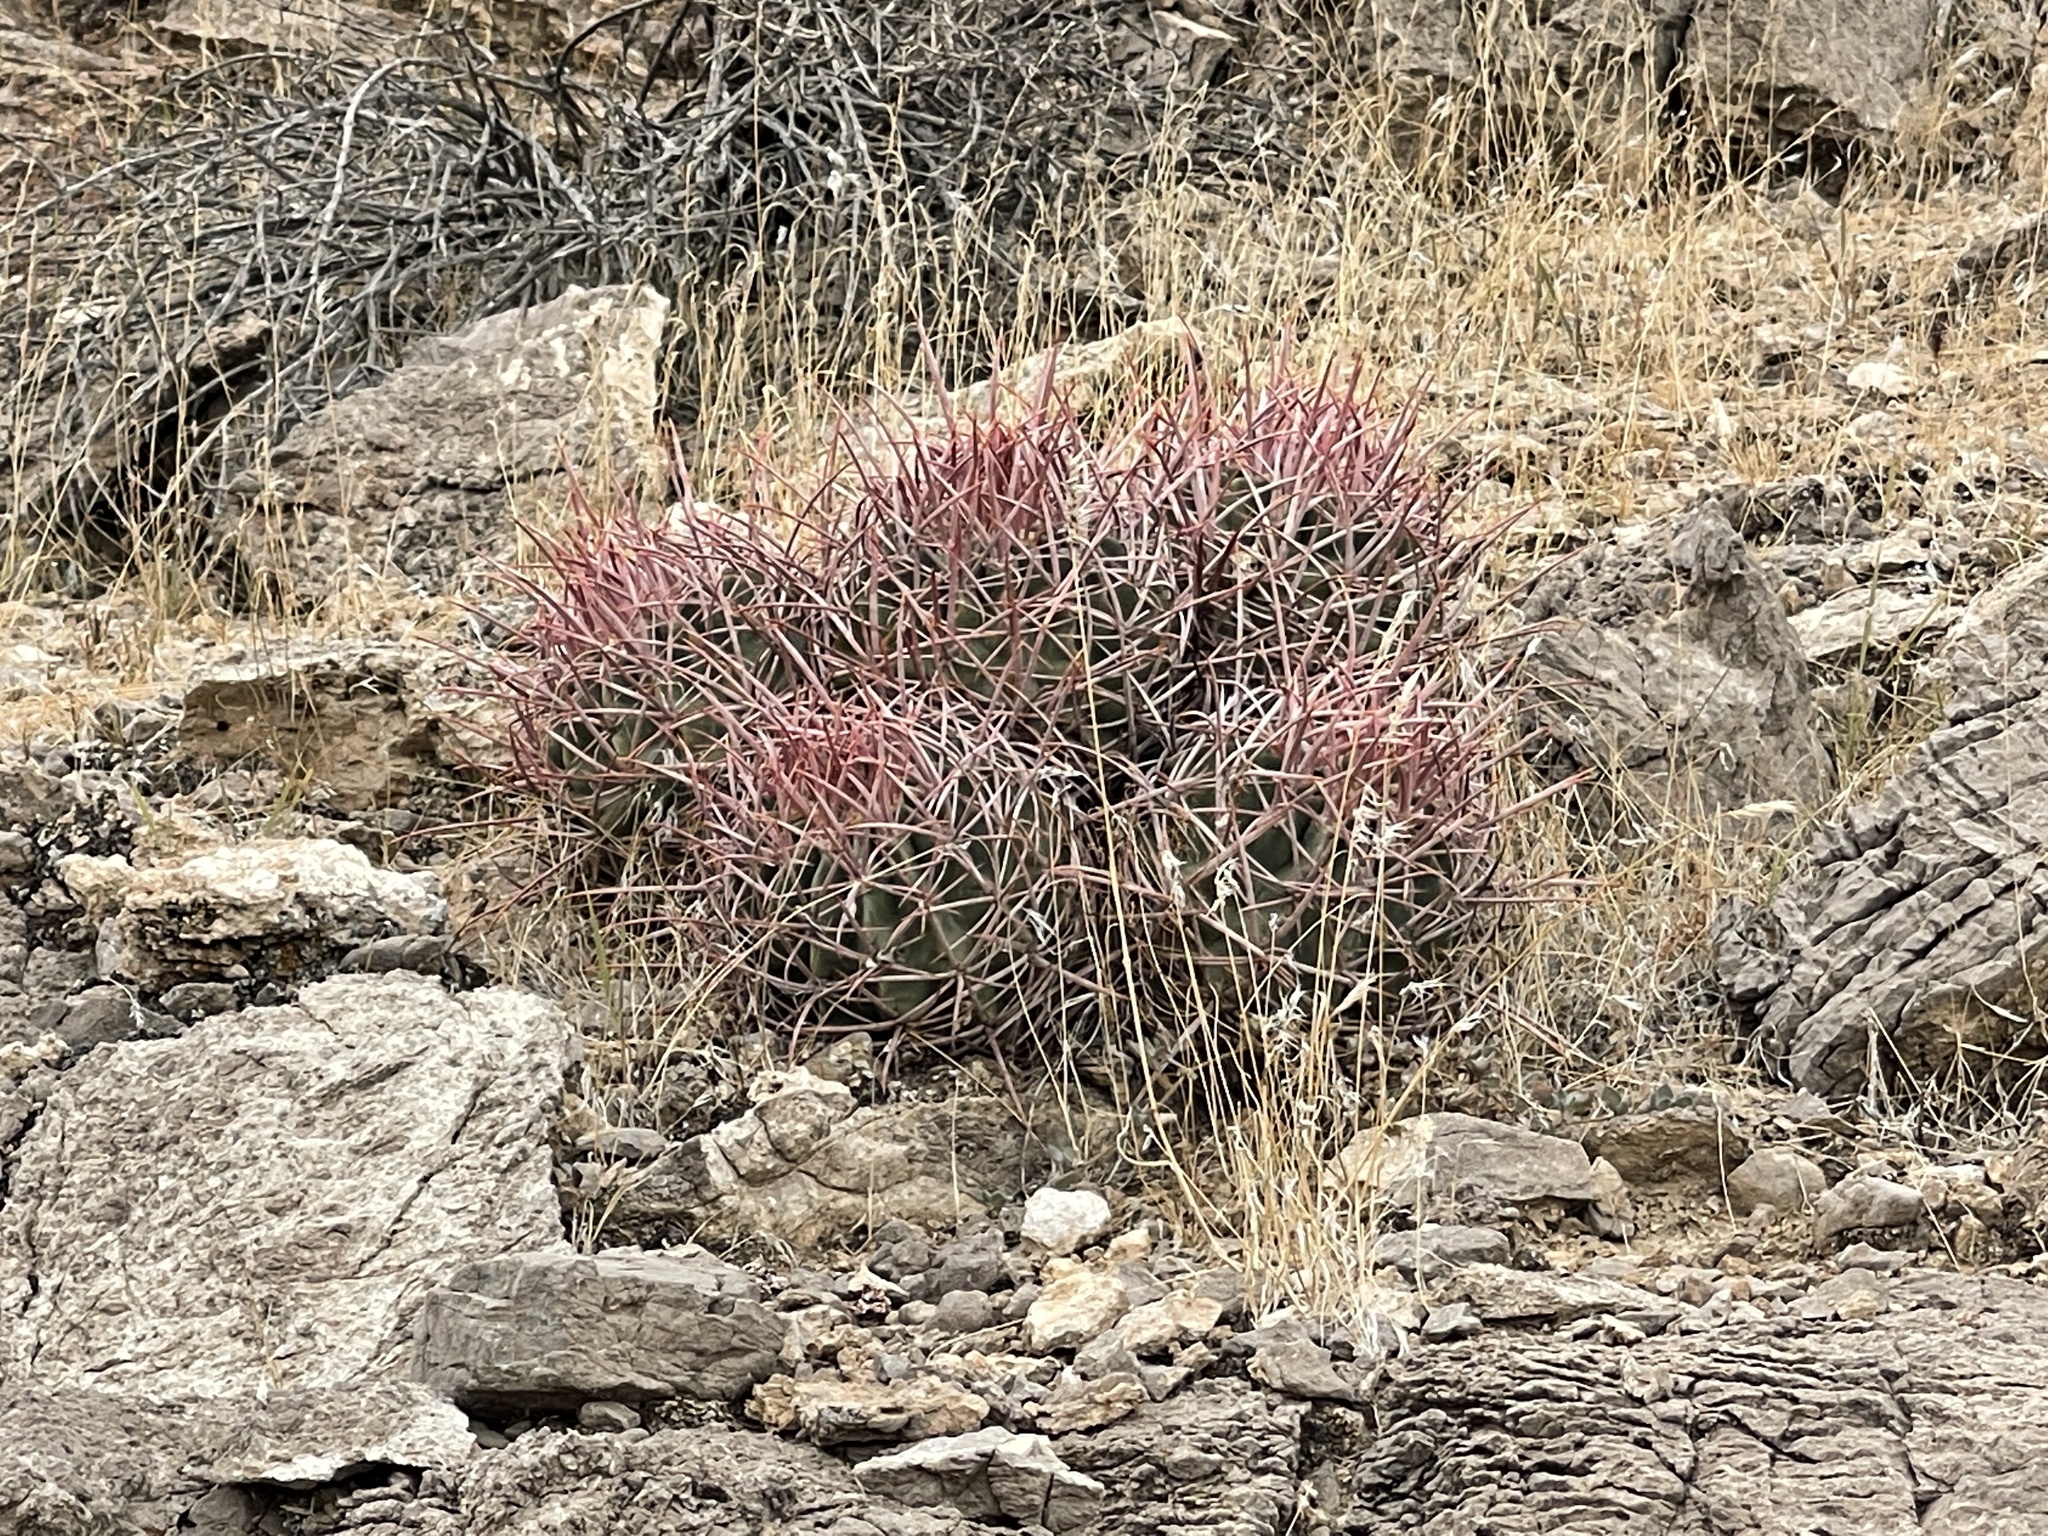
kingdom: Plantae
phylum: Tracheophyta
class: Magnoliopsida
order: Caryophyllales
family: Cactaceae
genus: Echinocactus
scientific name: Echinocactus polycephalus
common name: Cottontop cactus
